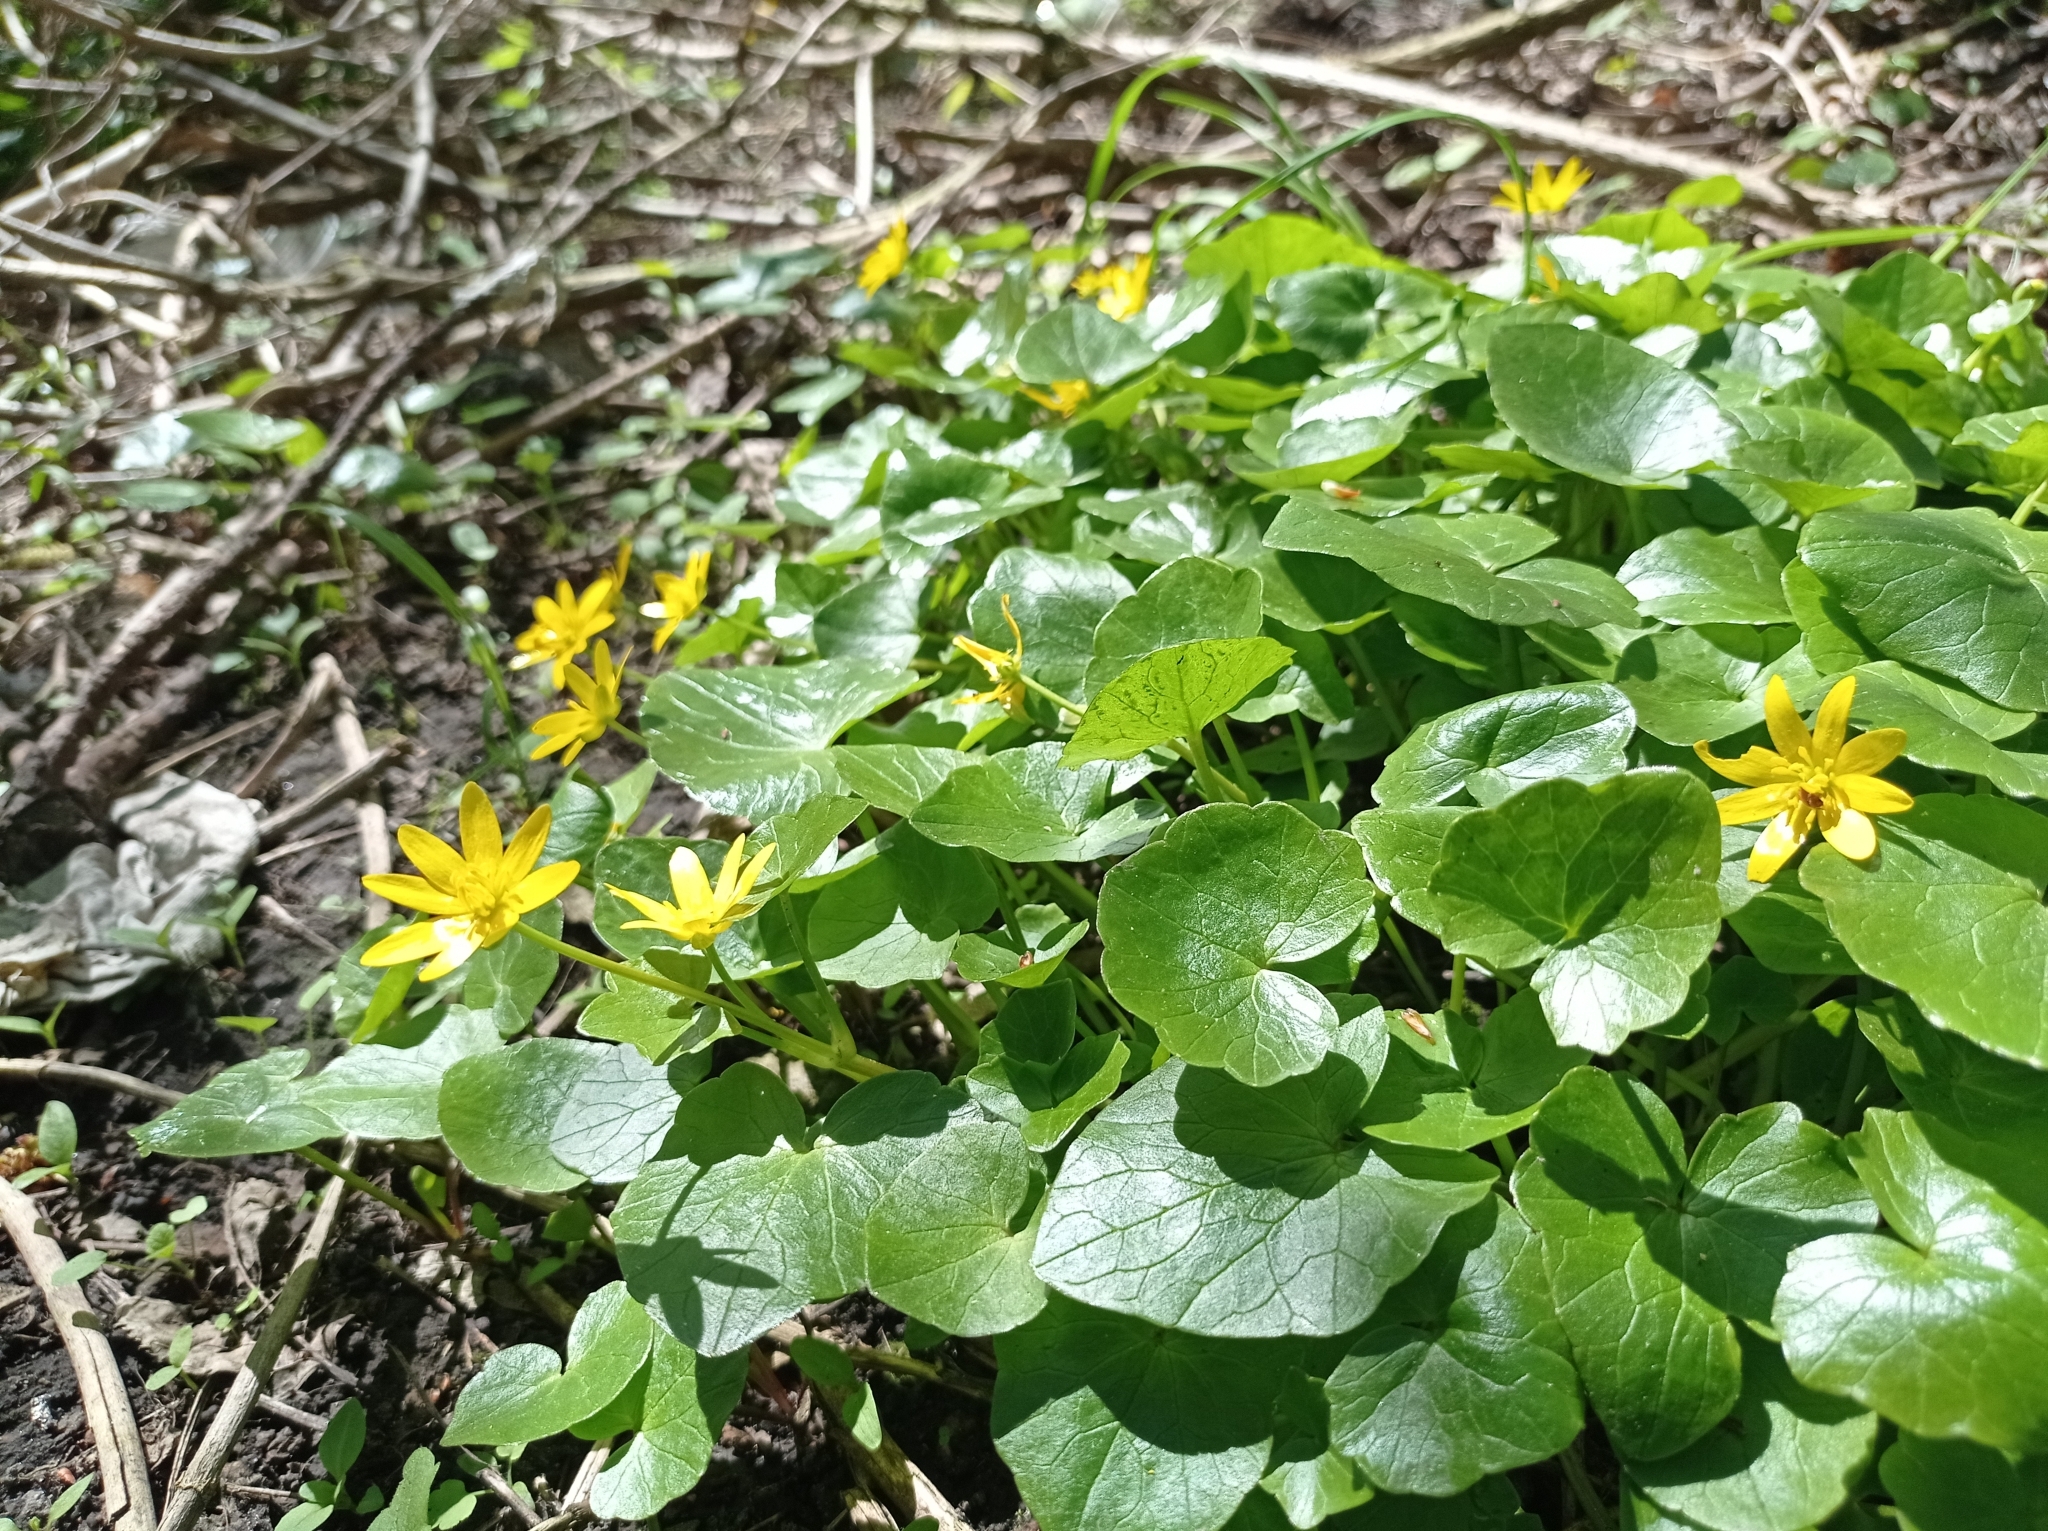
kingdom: Plantae
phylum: Tracheophyta
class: Magnoliopsida
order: Ranunculales
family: Ranunculaceae
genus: Ficaria
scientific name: Ficaria verna
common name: Lesser celandine
